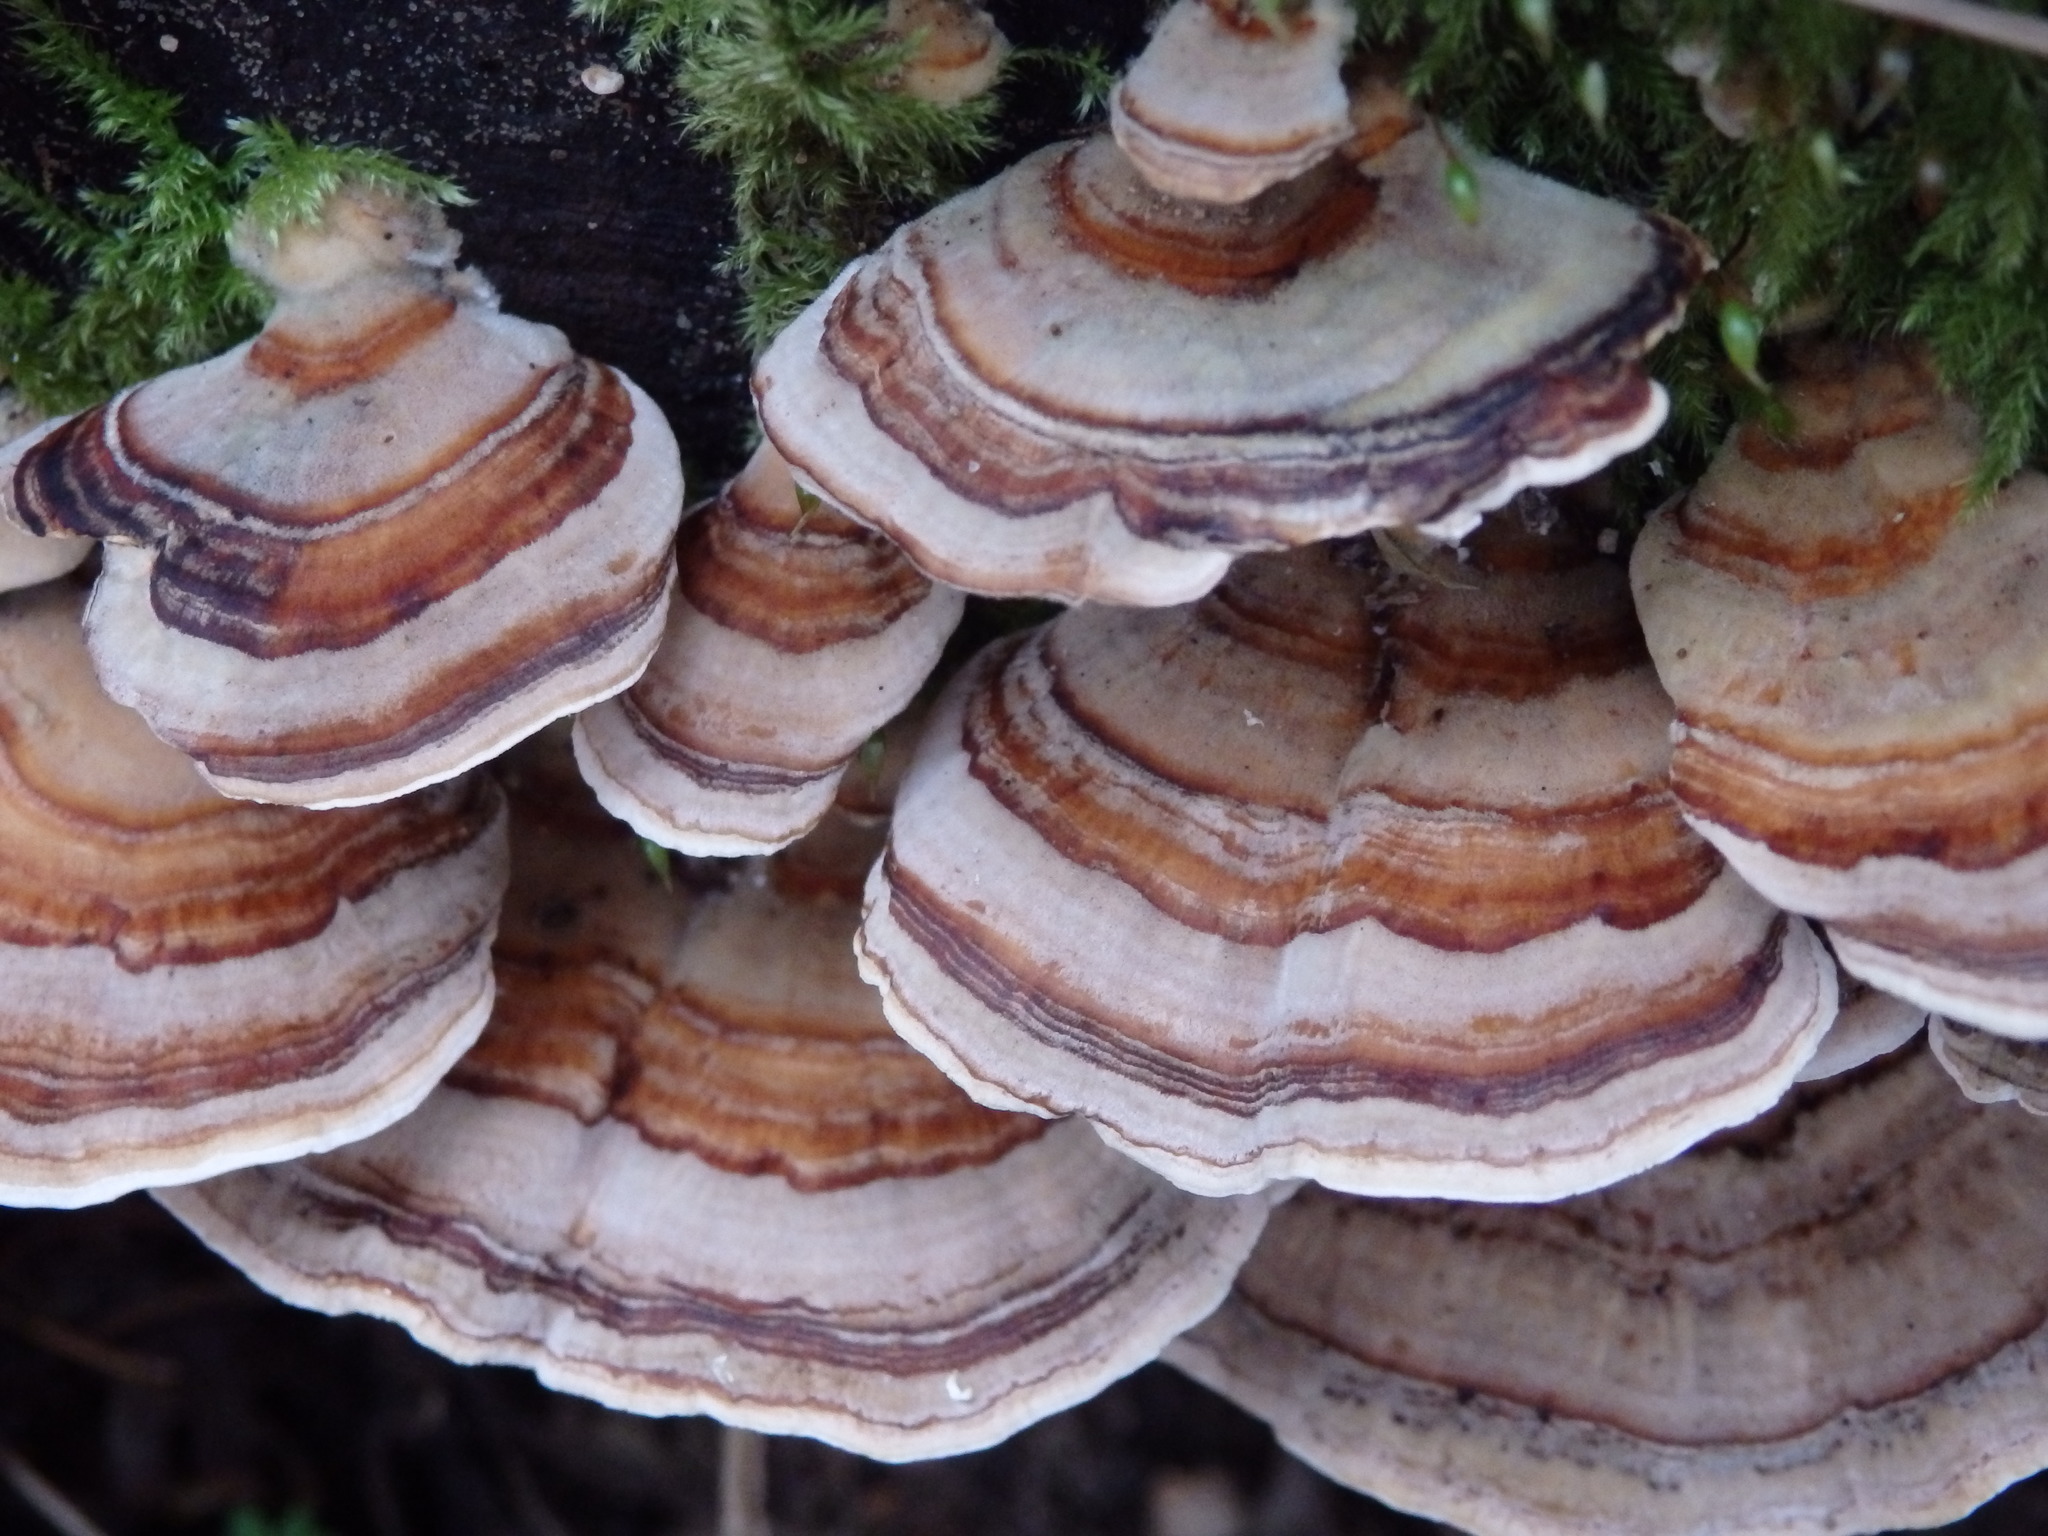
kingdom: Fungi
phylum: Basidiomycota
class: Agaricomycetes
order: Polyporales
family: Polyporaceae
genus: Trametes
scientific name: Trametes versicolor
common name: Turkeytail
